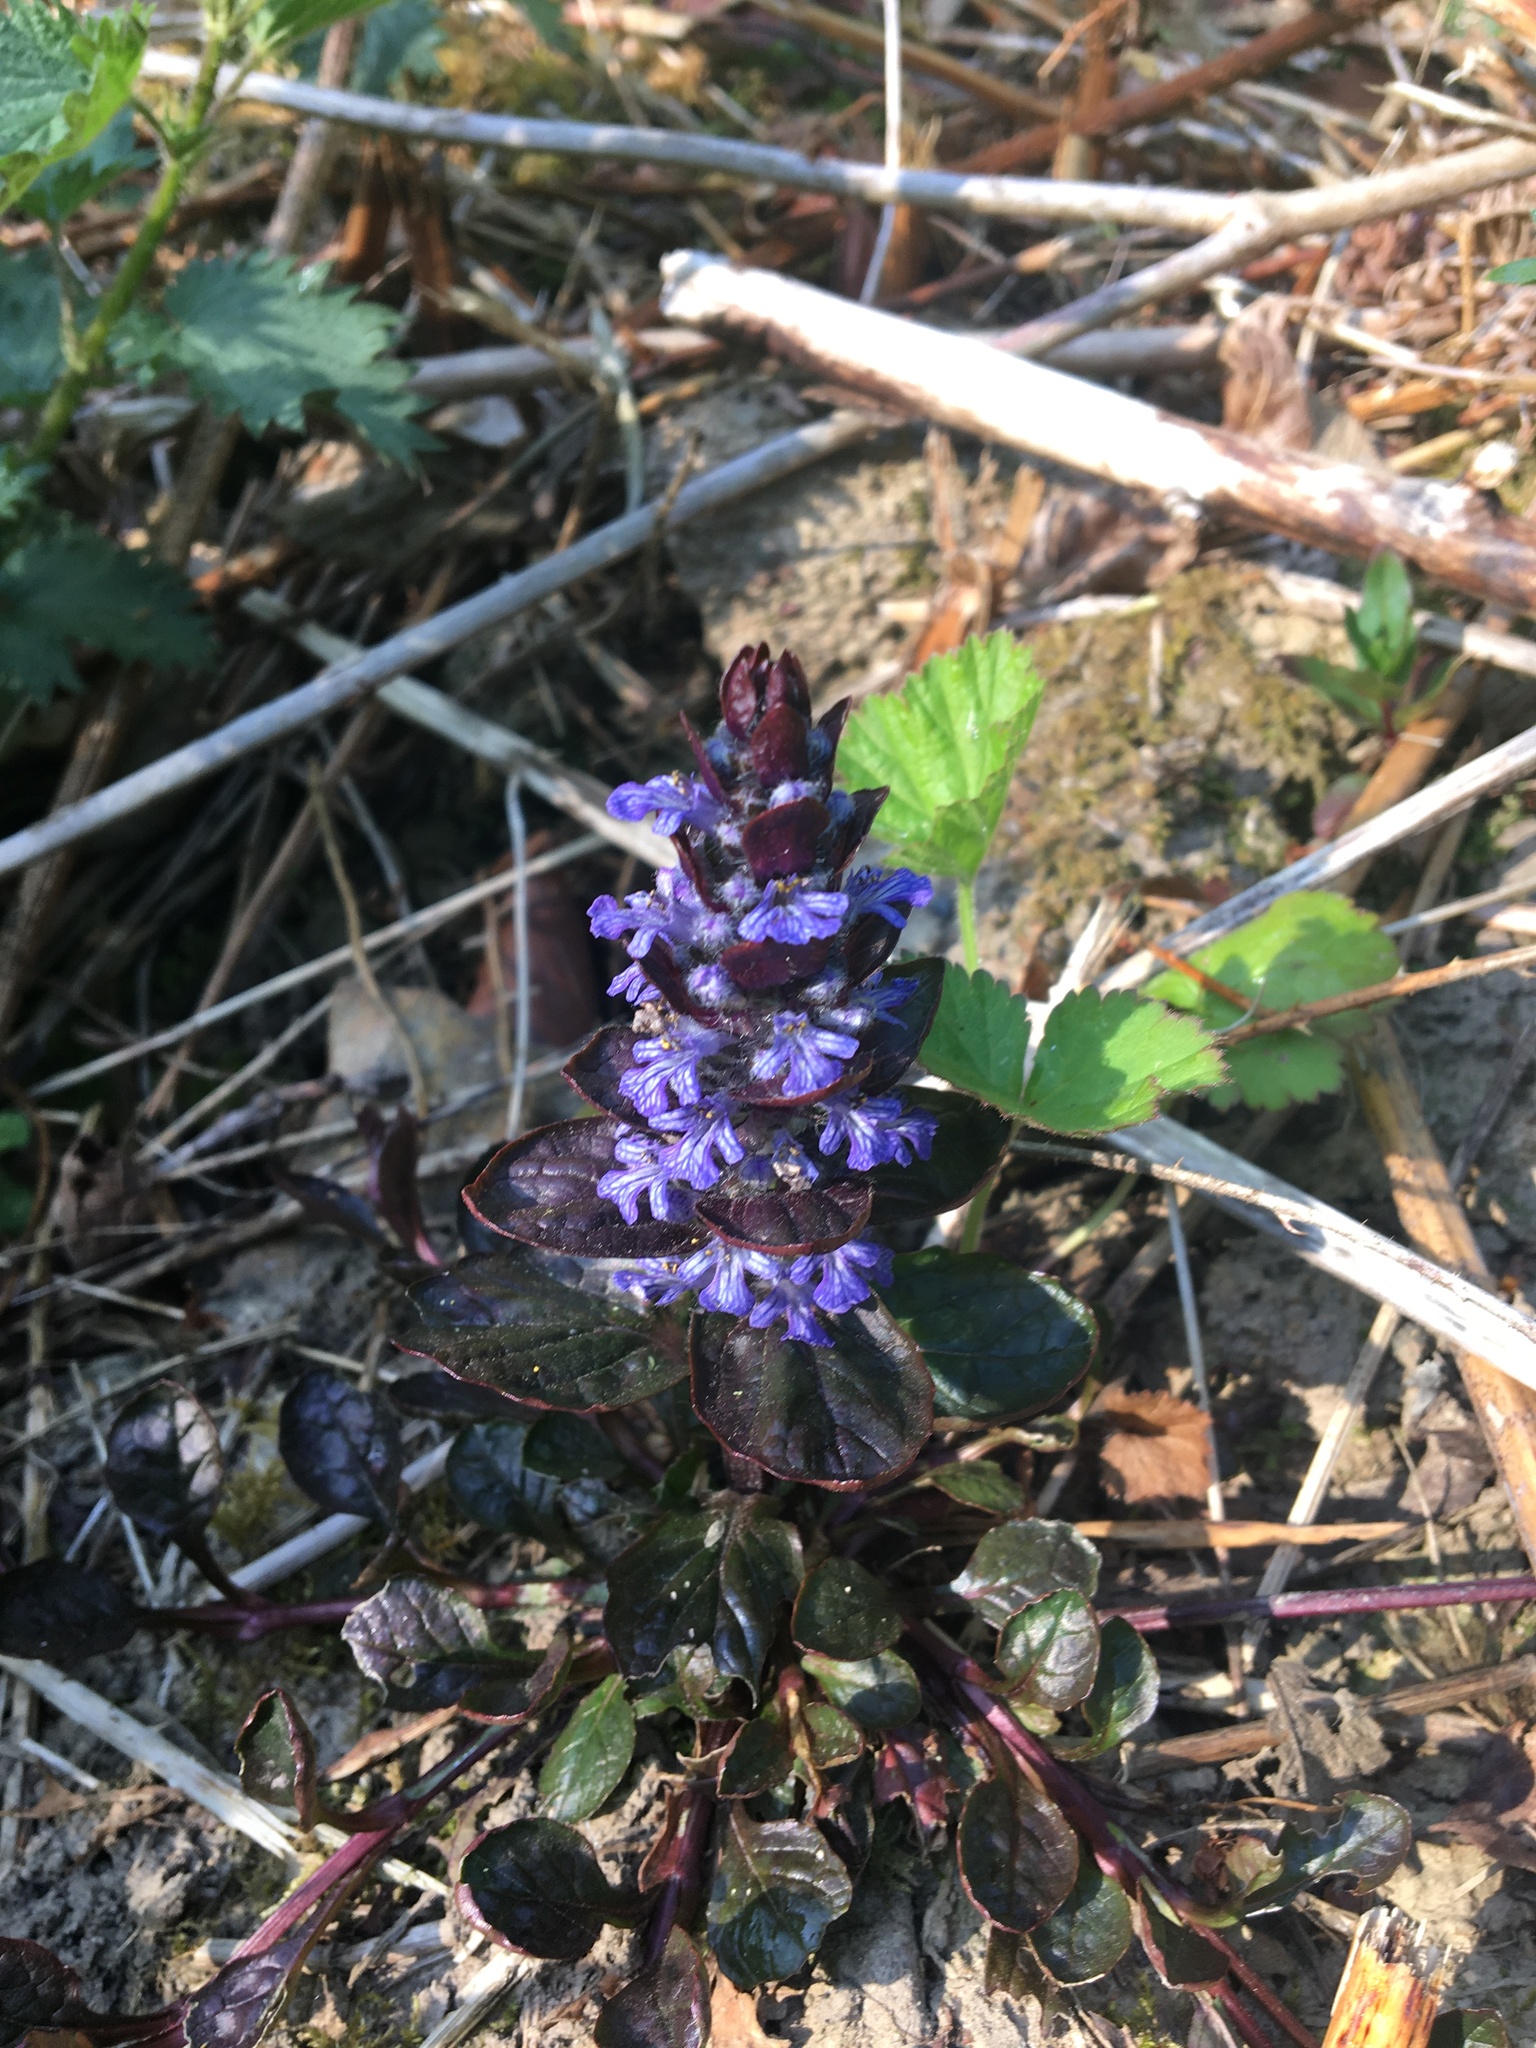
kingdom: Plantae
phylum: Tracheophyta
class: Magnoliopsida
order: Lamiales
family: Lamiaceae
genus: Ajuga
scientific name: Ajuga reptans
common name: Bugle
